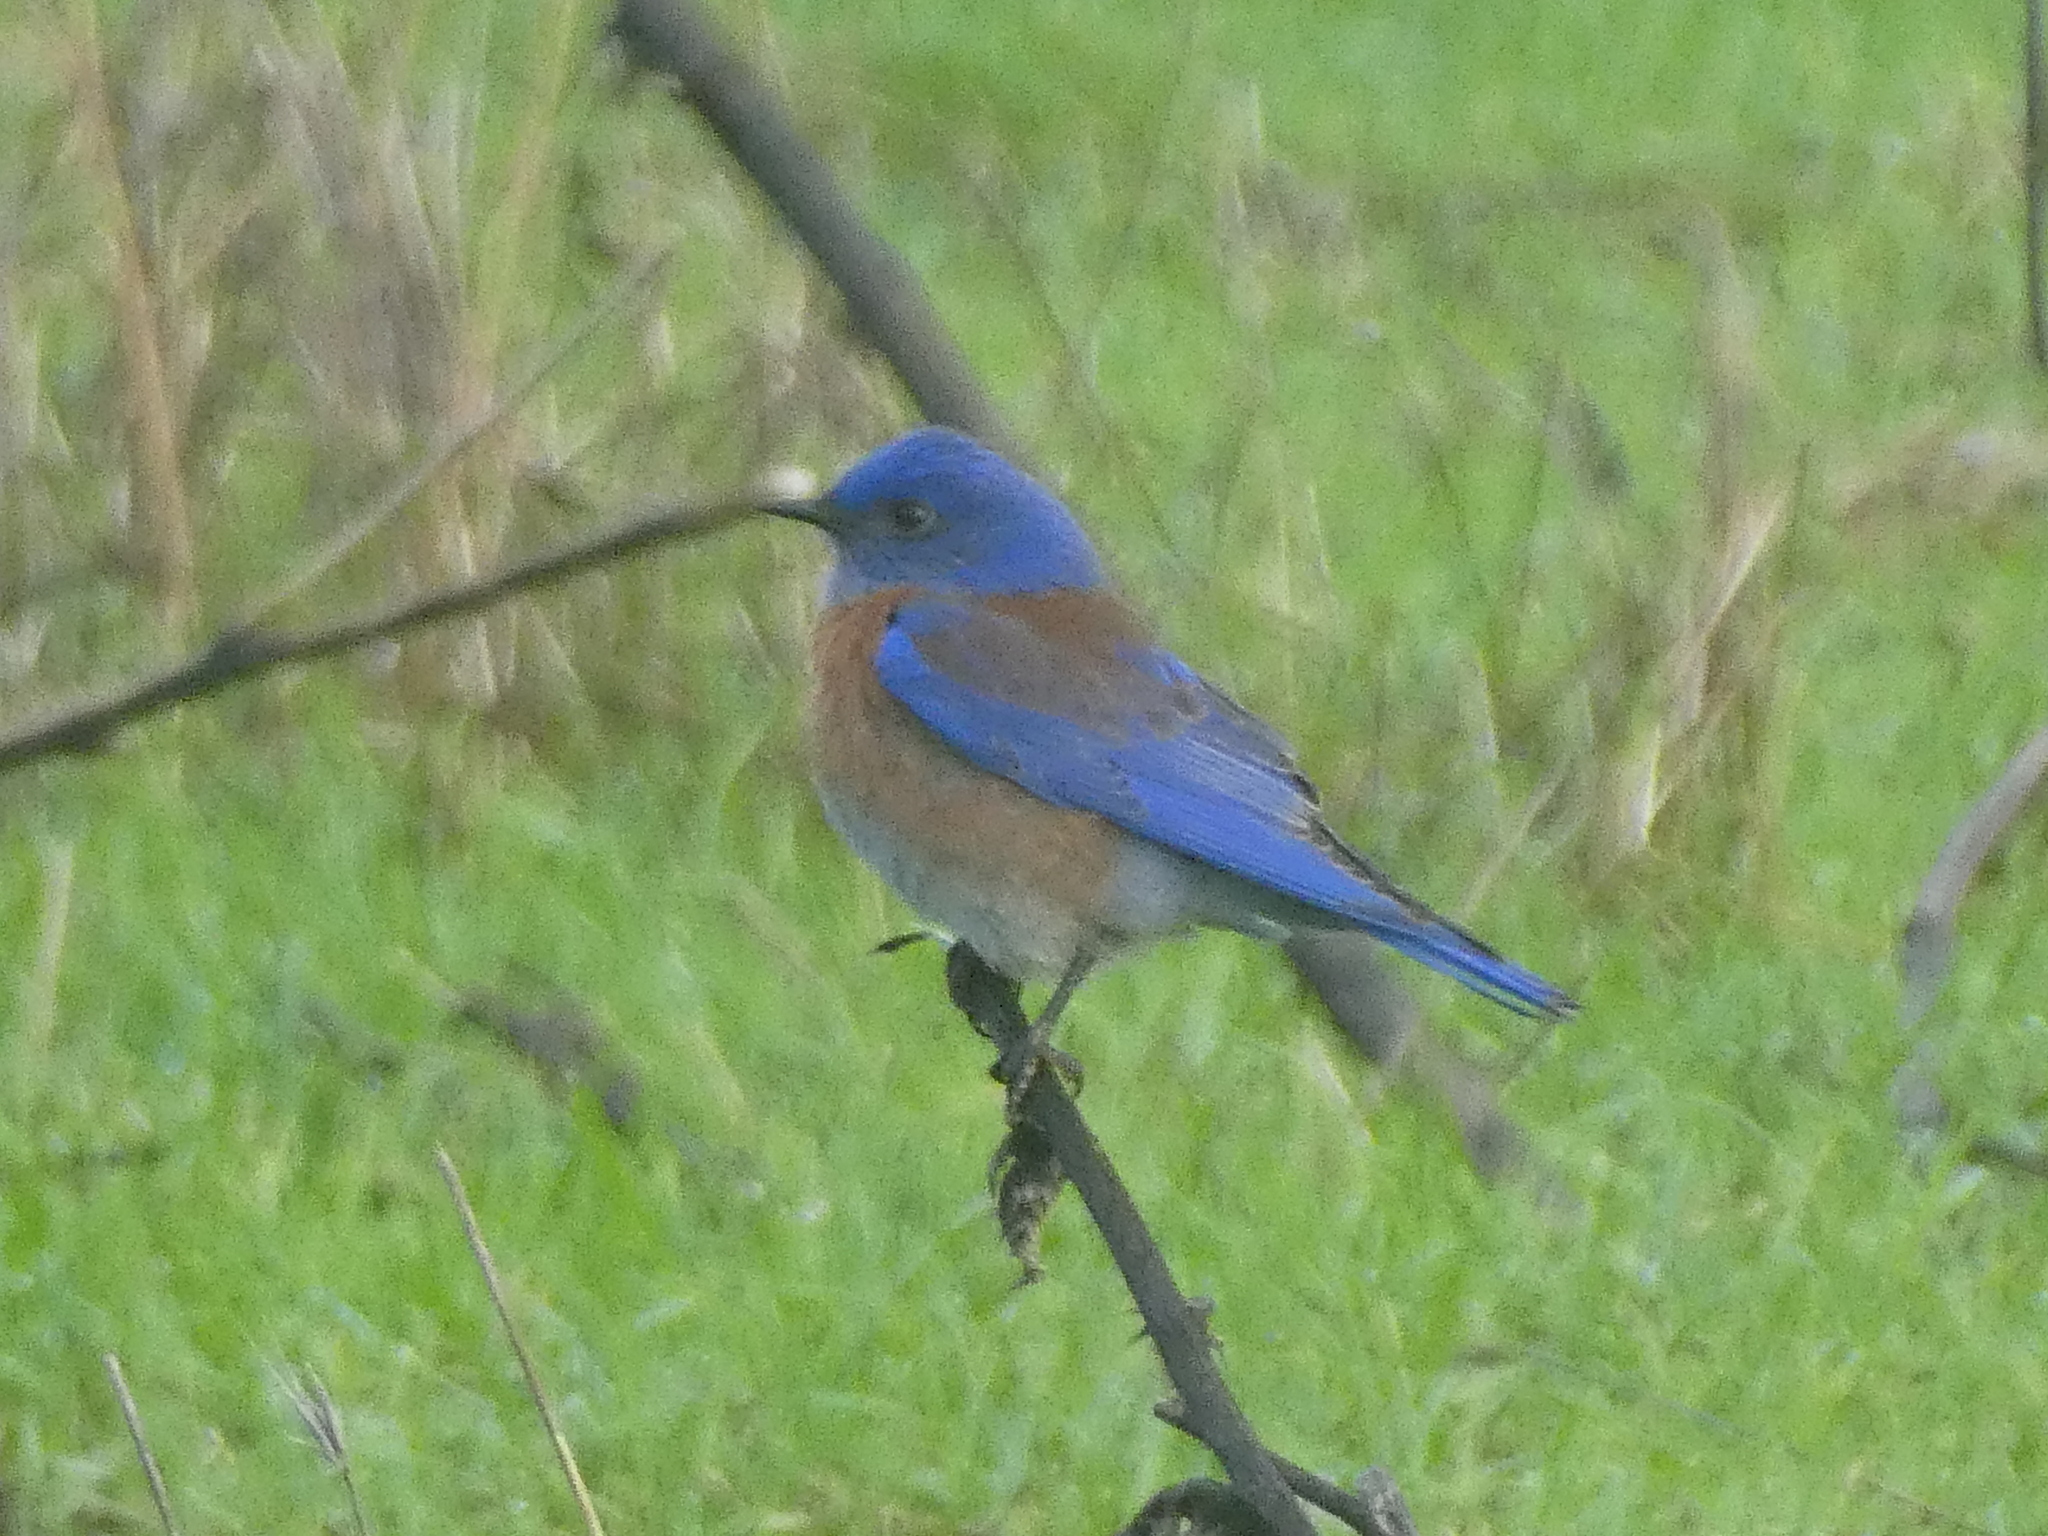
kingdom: Animalia
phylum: Chordata
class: Aves
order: Passeriformes
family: Turdidae
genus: Sialia
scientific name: Sialia mexicana
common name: Western bluebird
